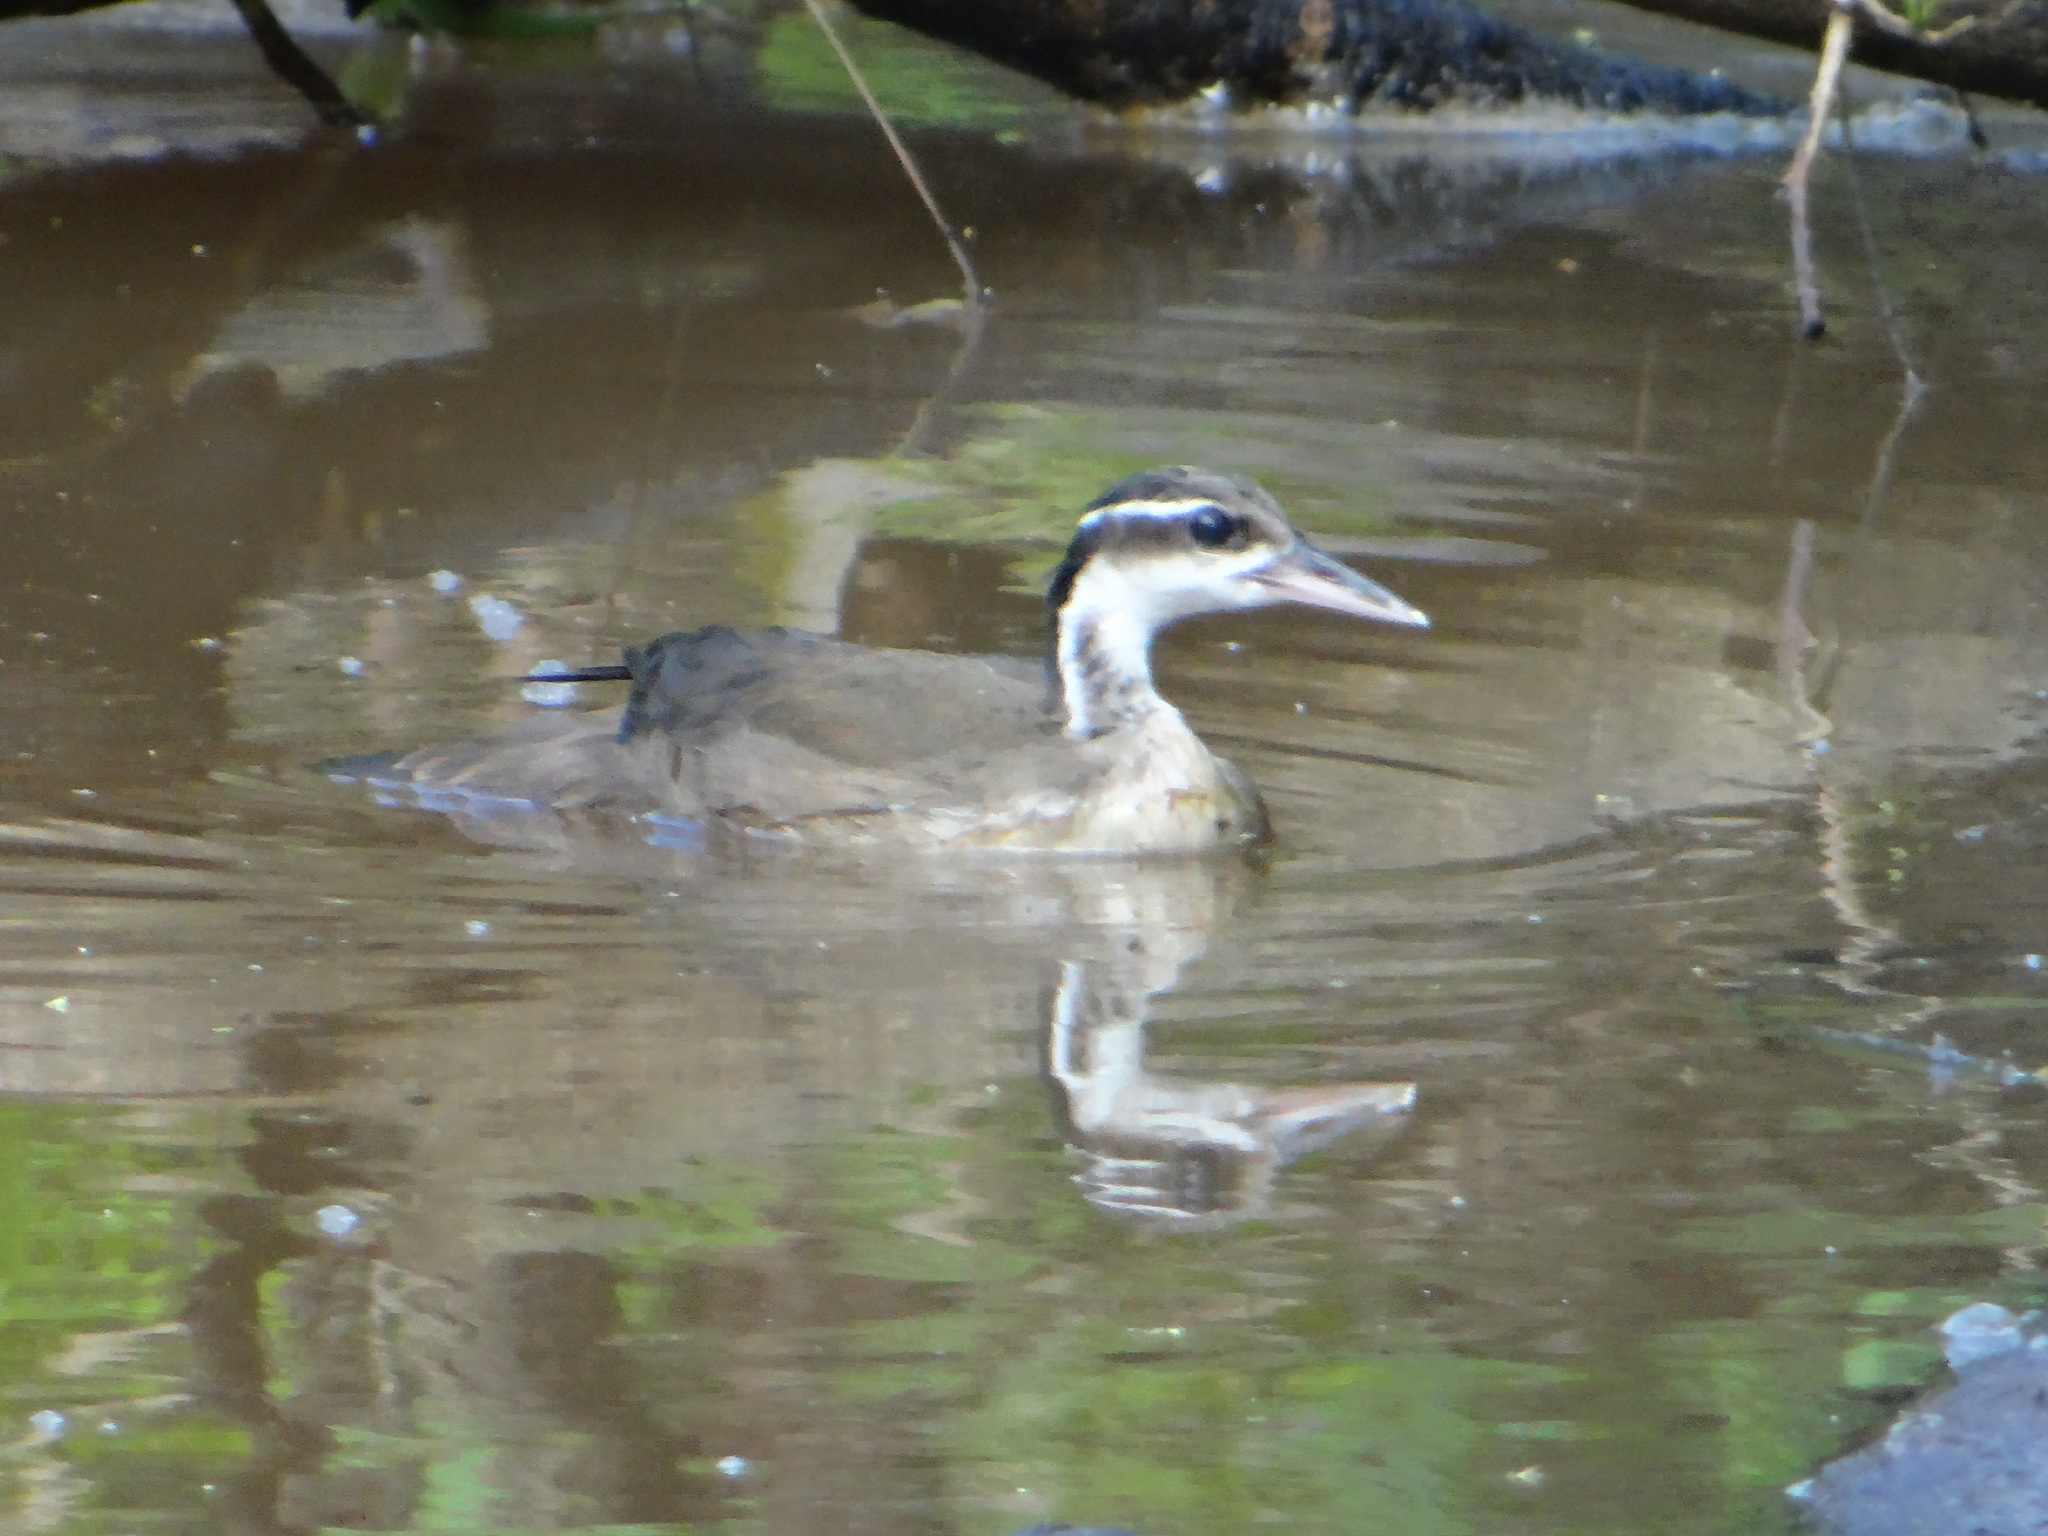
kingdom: Animalia
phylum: Chordata
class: Aves
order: Gruiformes
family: Heliornithidae
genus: Heliornis
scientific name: Heliornis fulica
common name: Sungrebe
